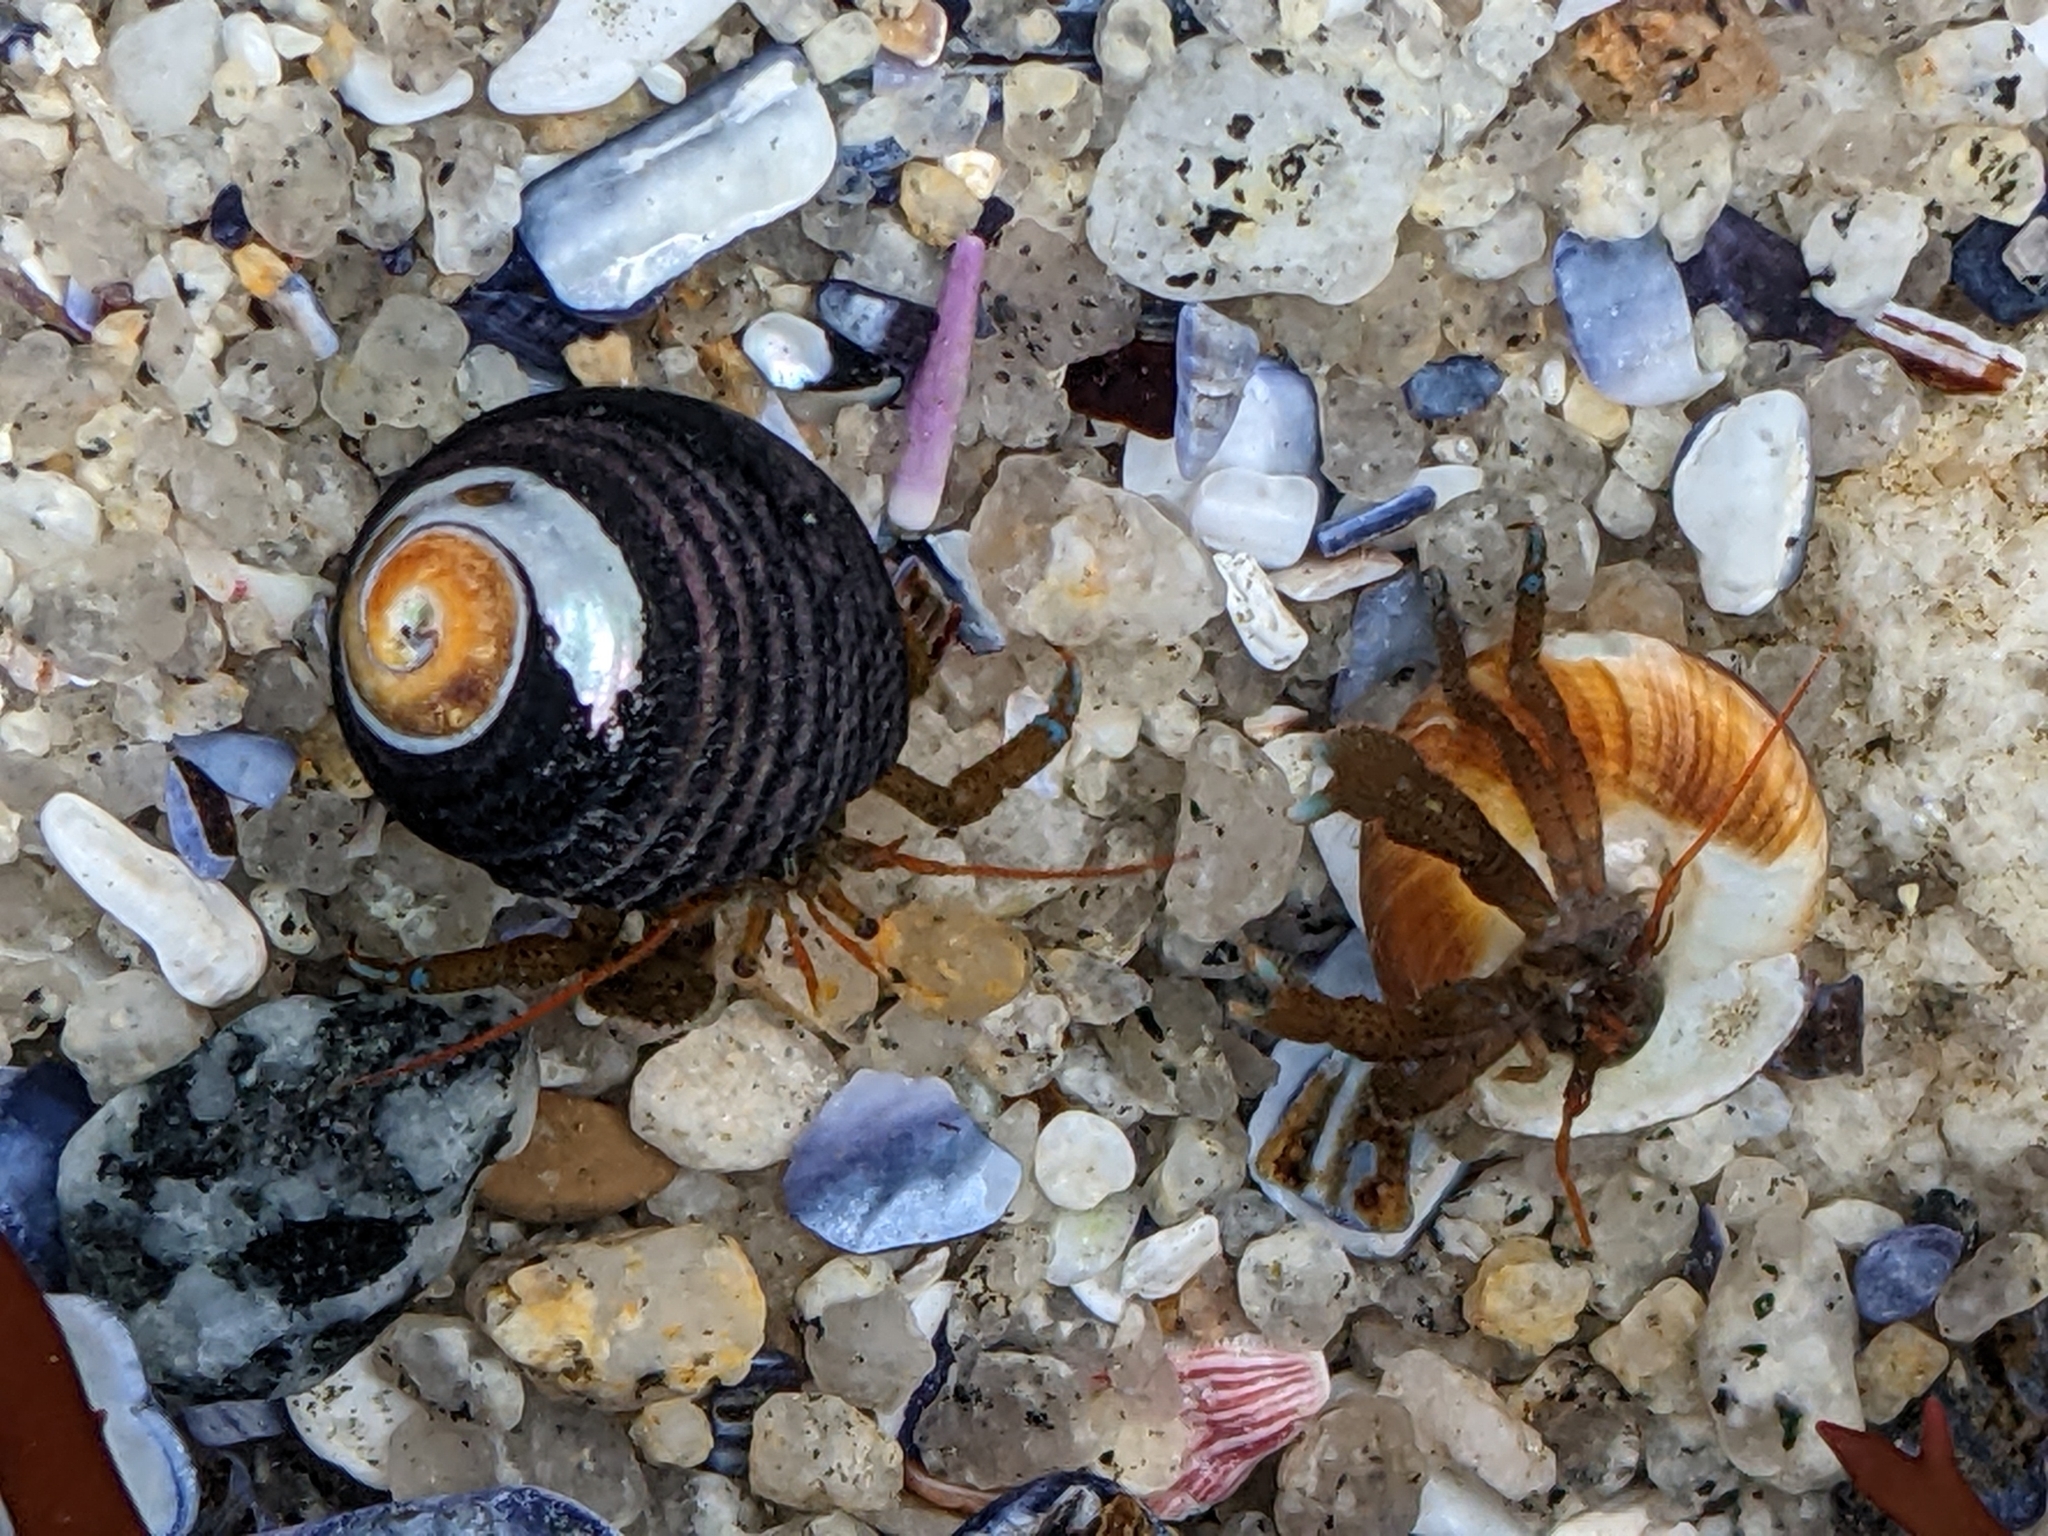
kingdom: Animalia
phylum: Arthropoda
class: Malacostraca
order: Decapoda
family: Paguridae
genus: Pagurus
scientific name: Pagurus samuelis
